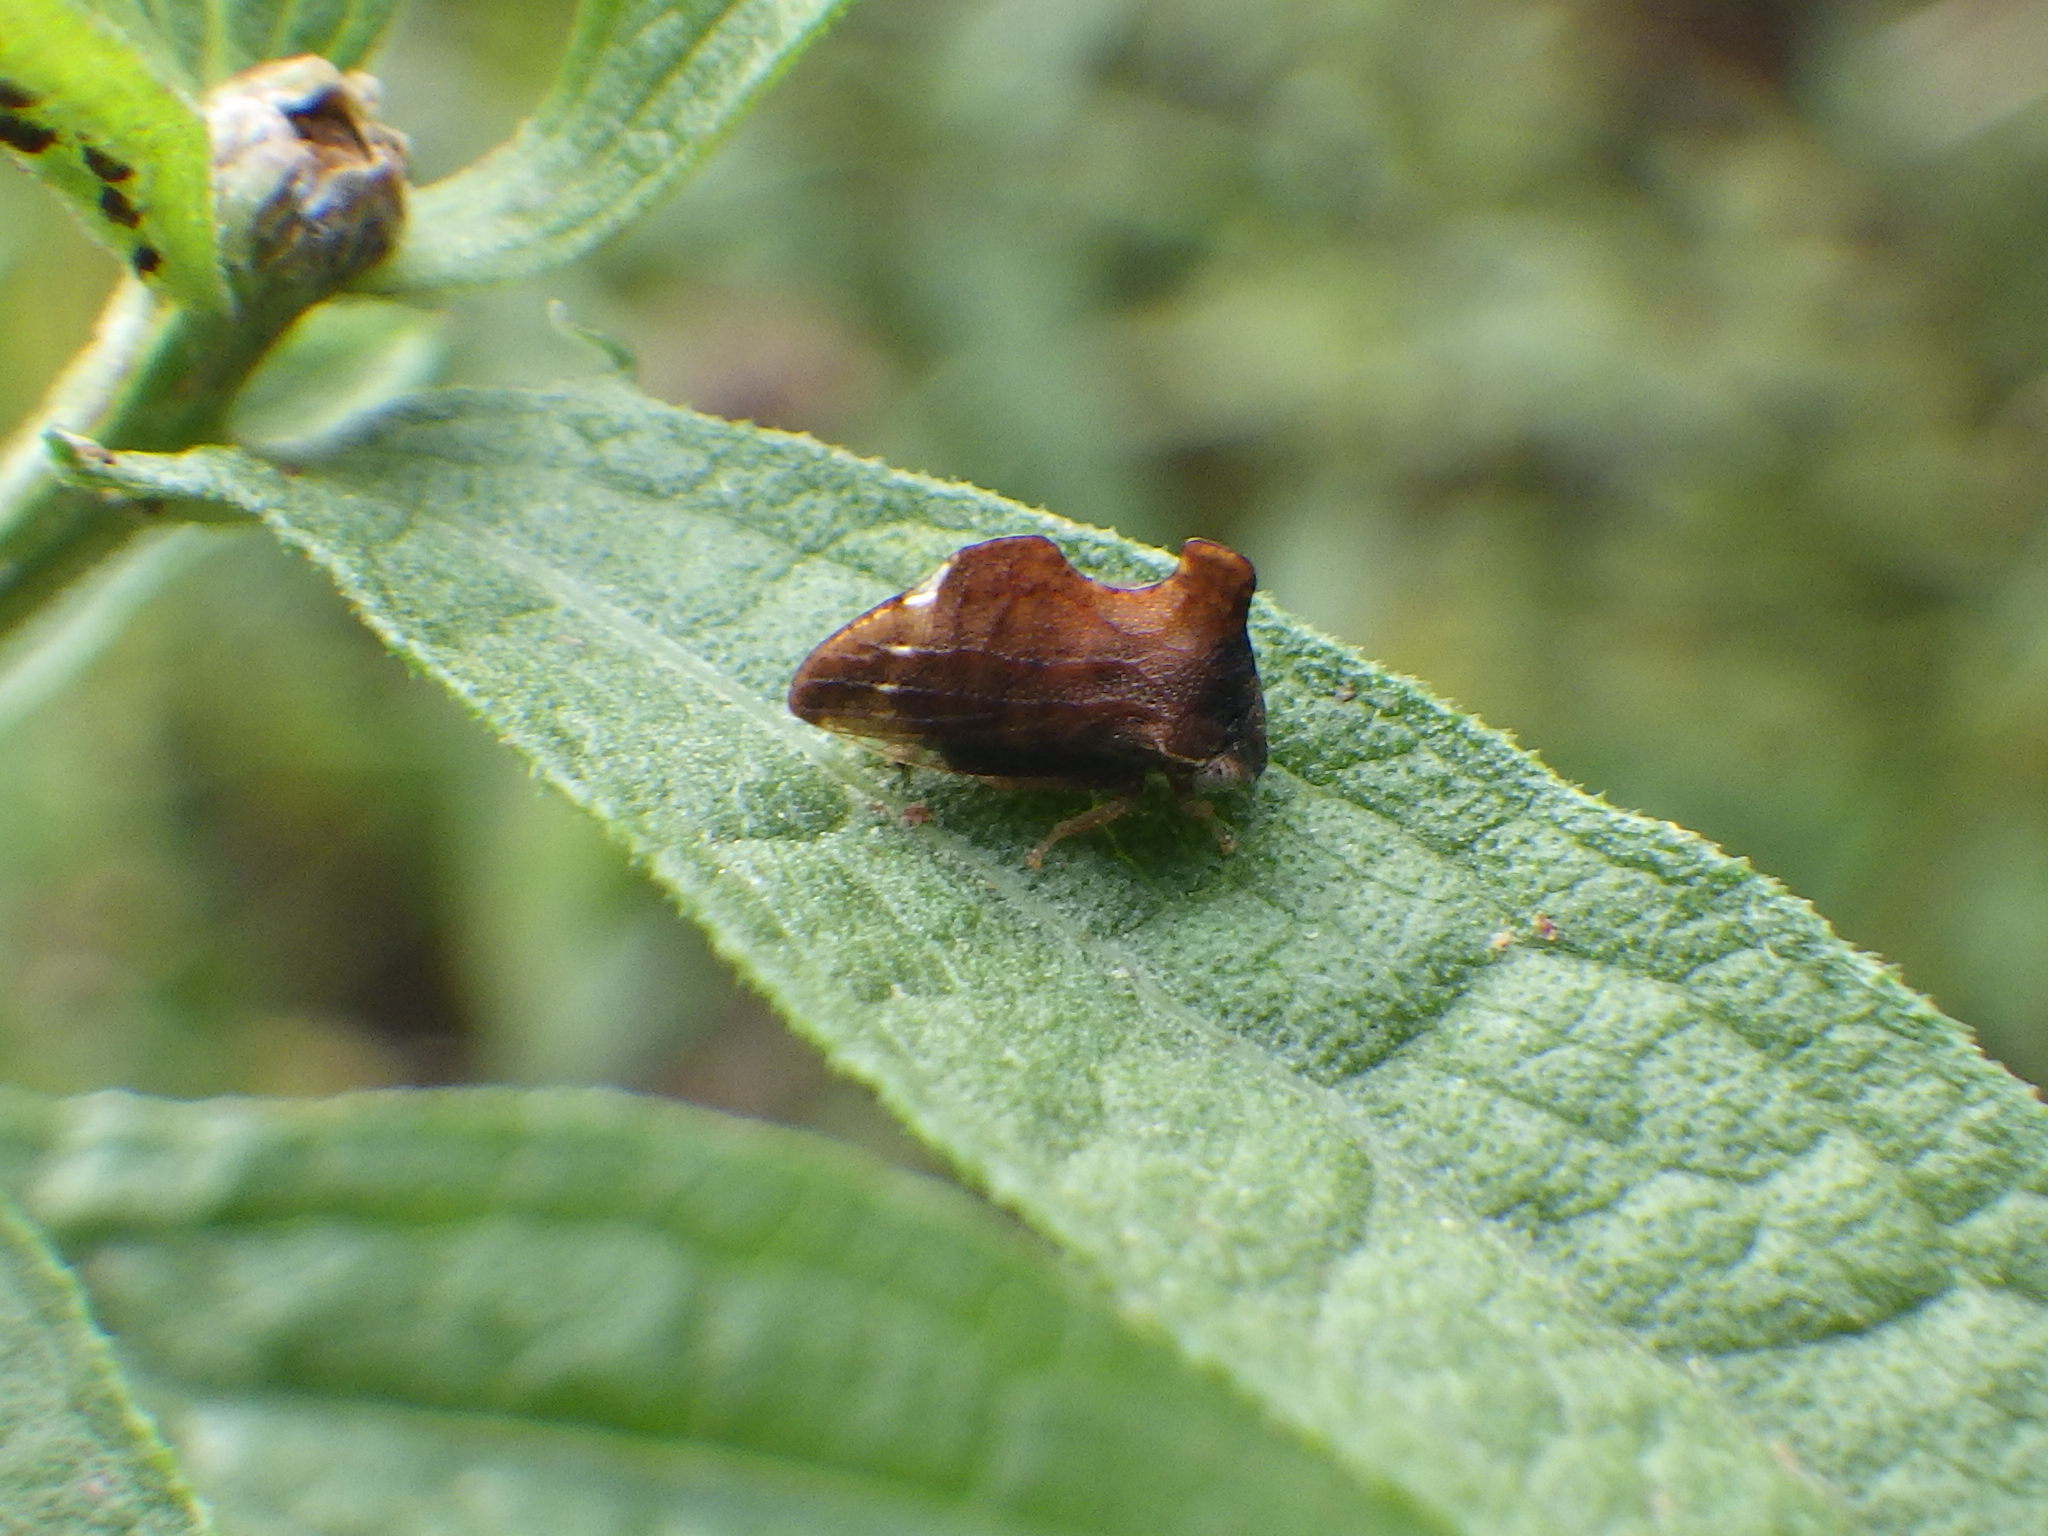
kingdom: Animalia
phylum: Arthropoda
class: Insecta
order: Hemiptera
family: Membracidae
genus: Entylia
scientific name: Entylia carinata
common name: Keeled treehopper
